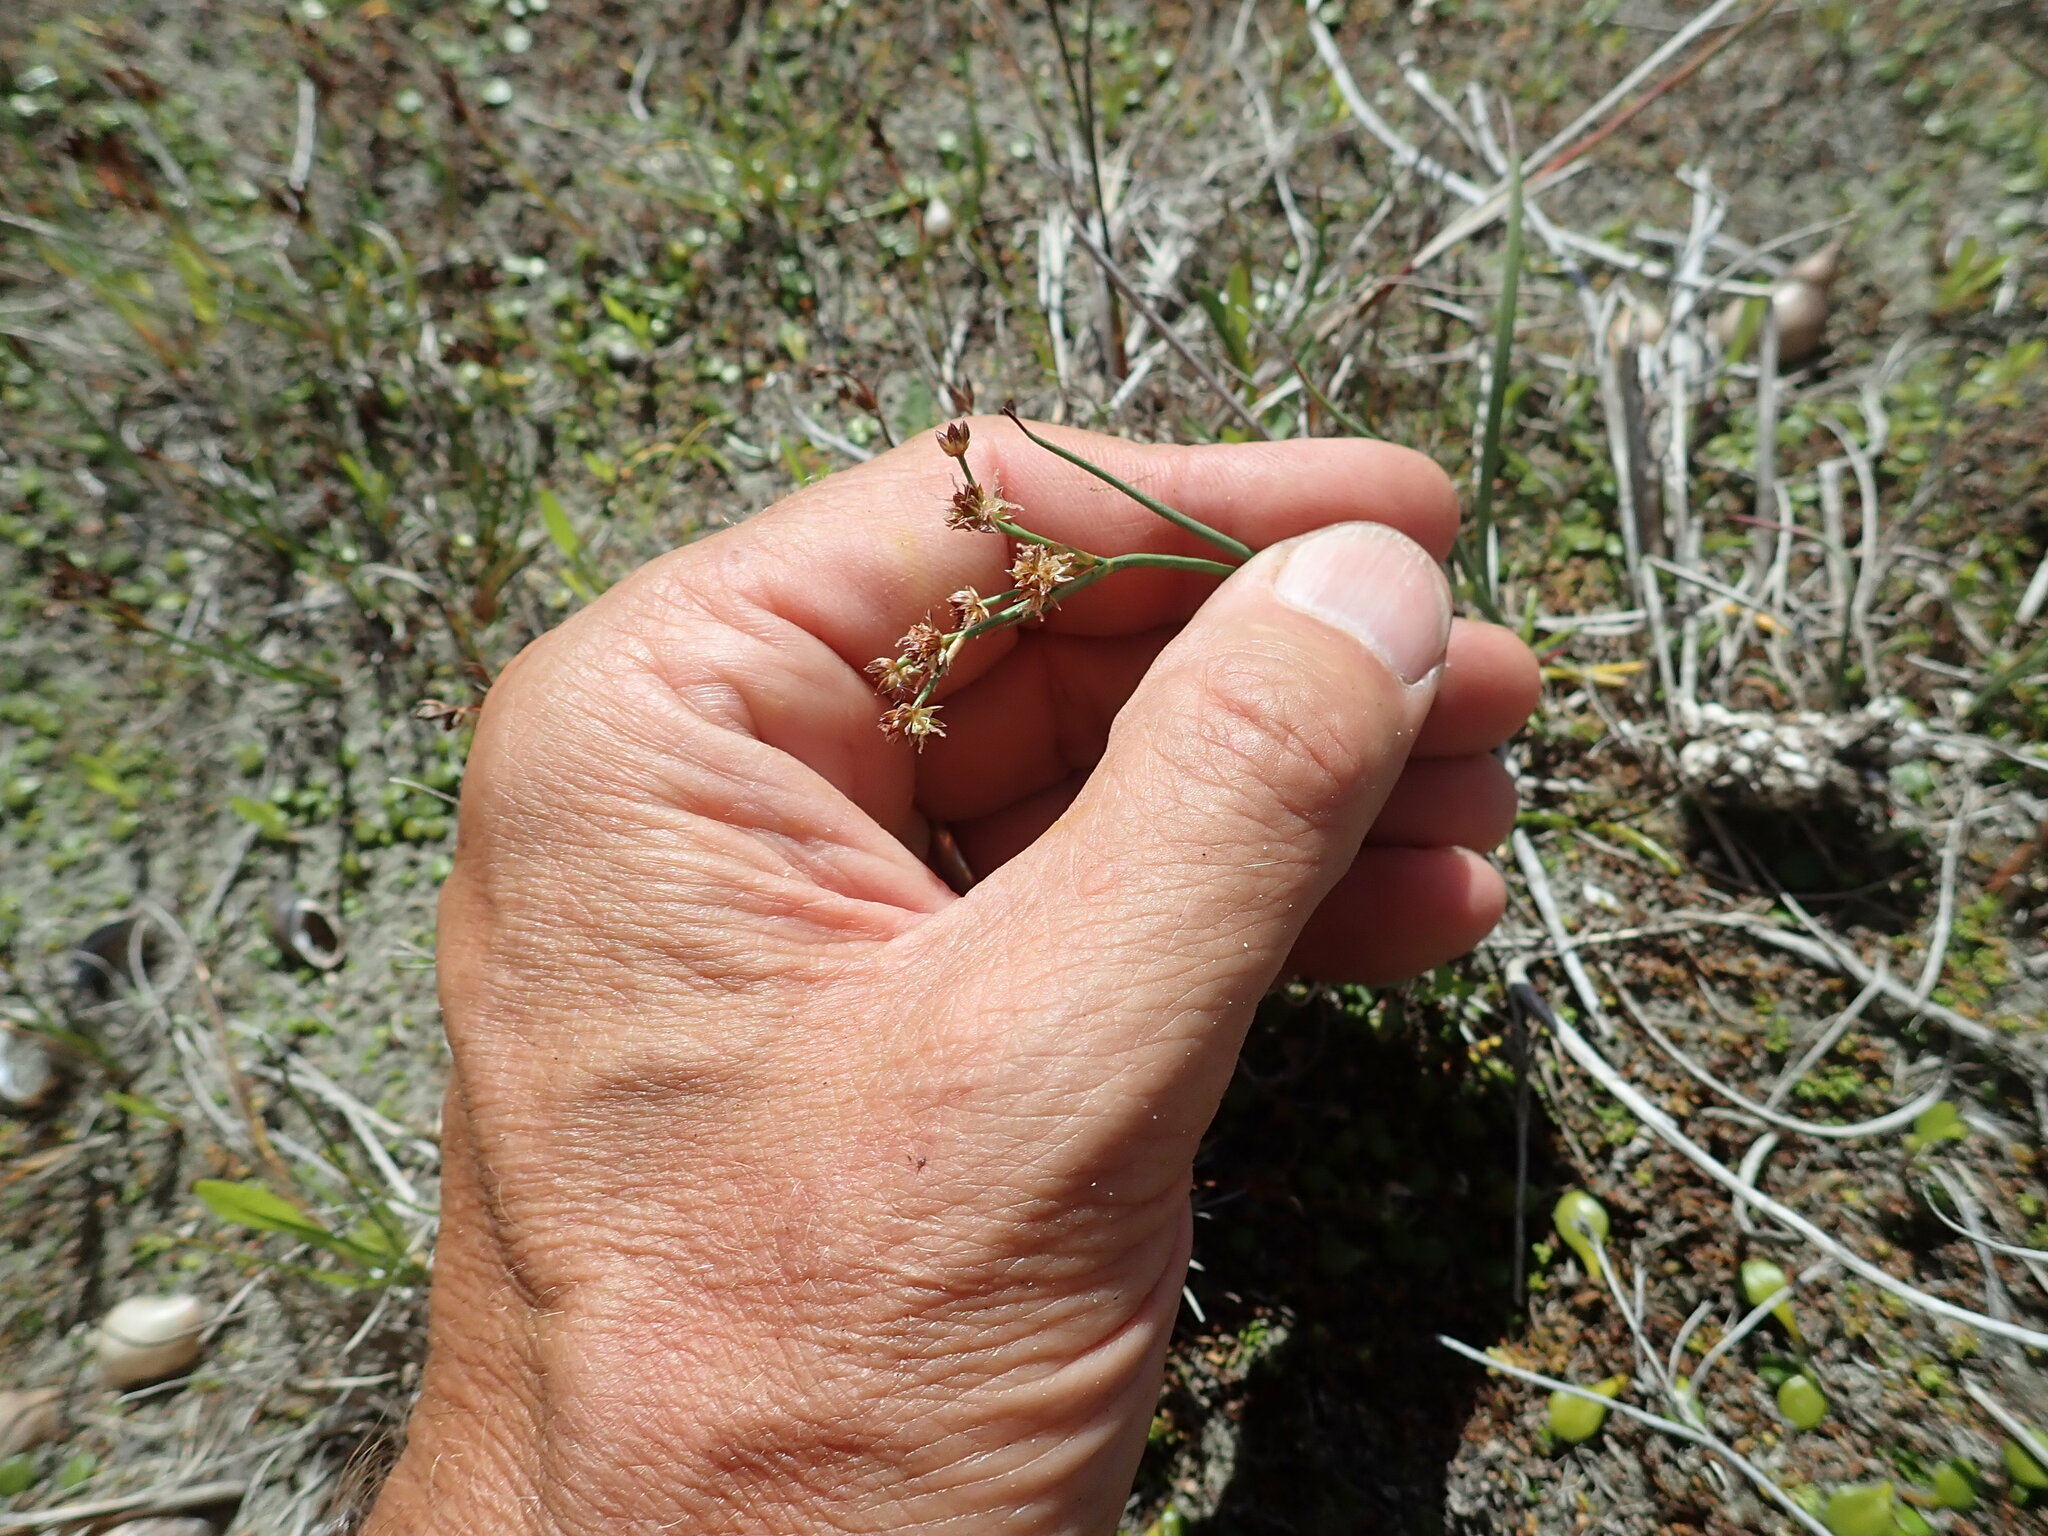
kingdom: Plantae
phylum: Tracheophyta
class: Liliopsida
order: Poales
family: Juncaceae
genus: Juncus
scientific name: Juncus articulatus
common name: Jointed rush
